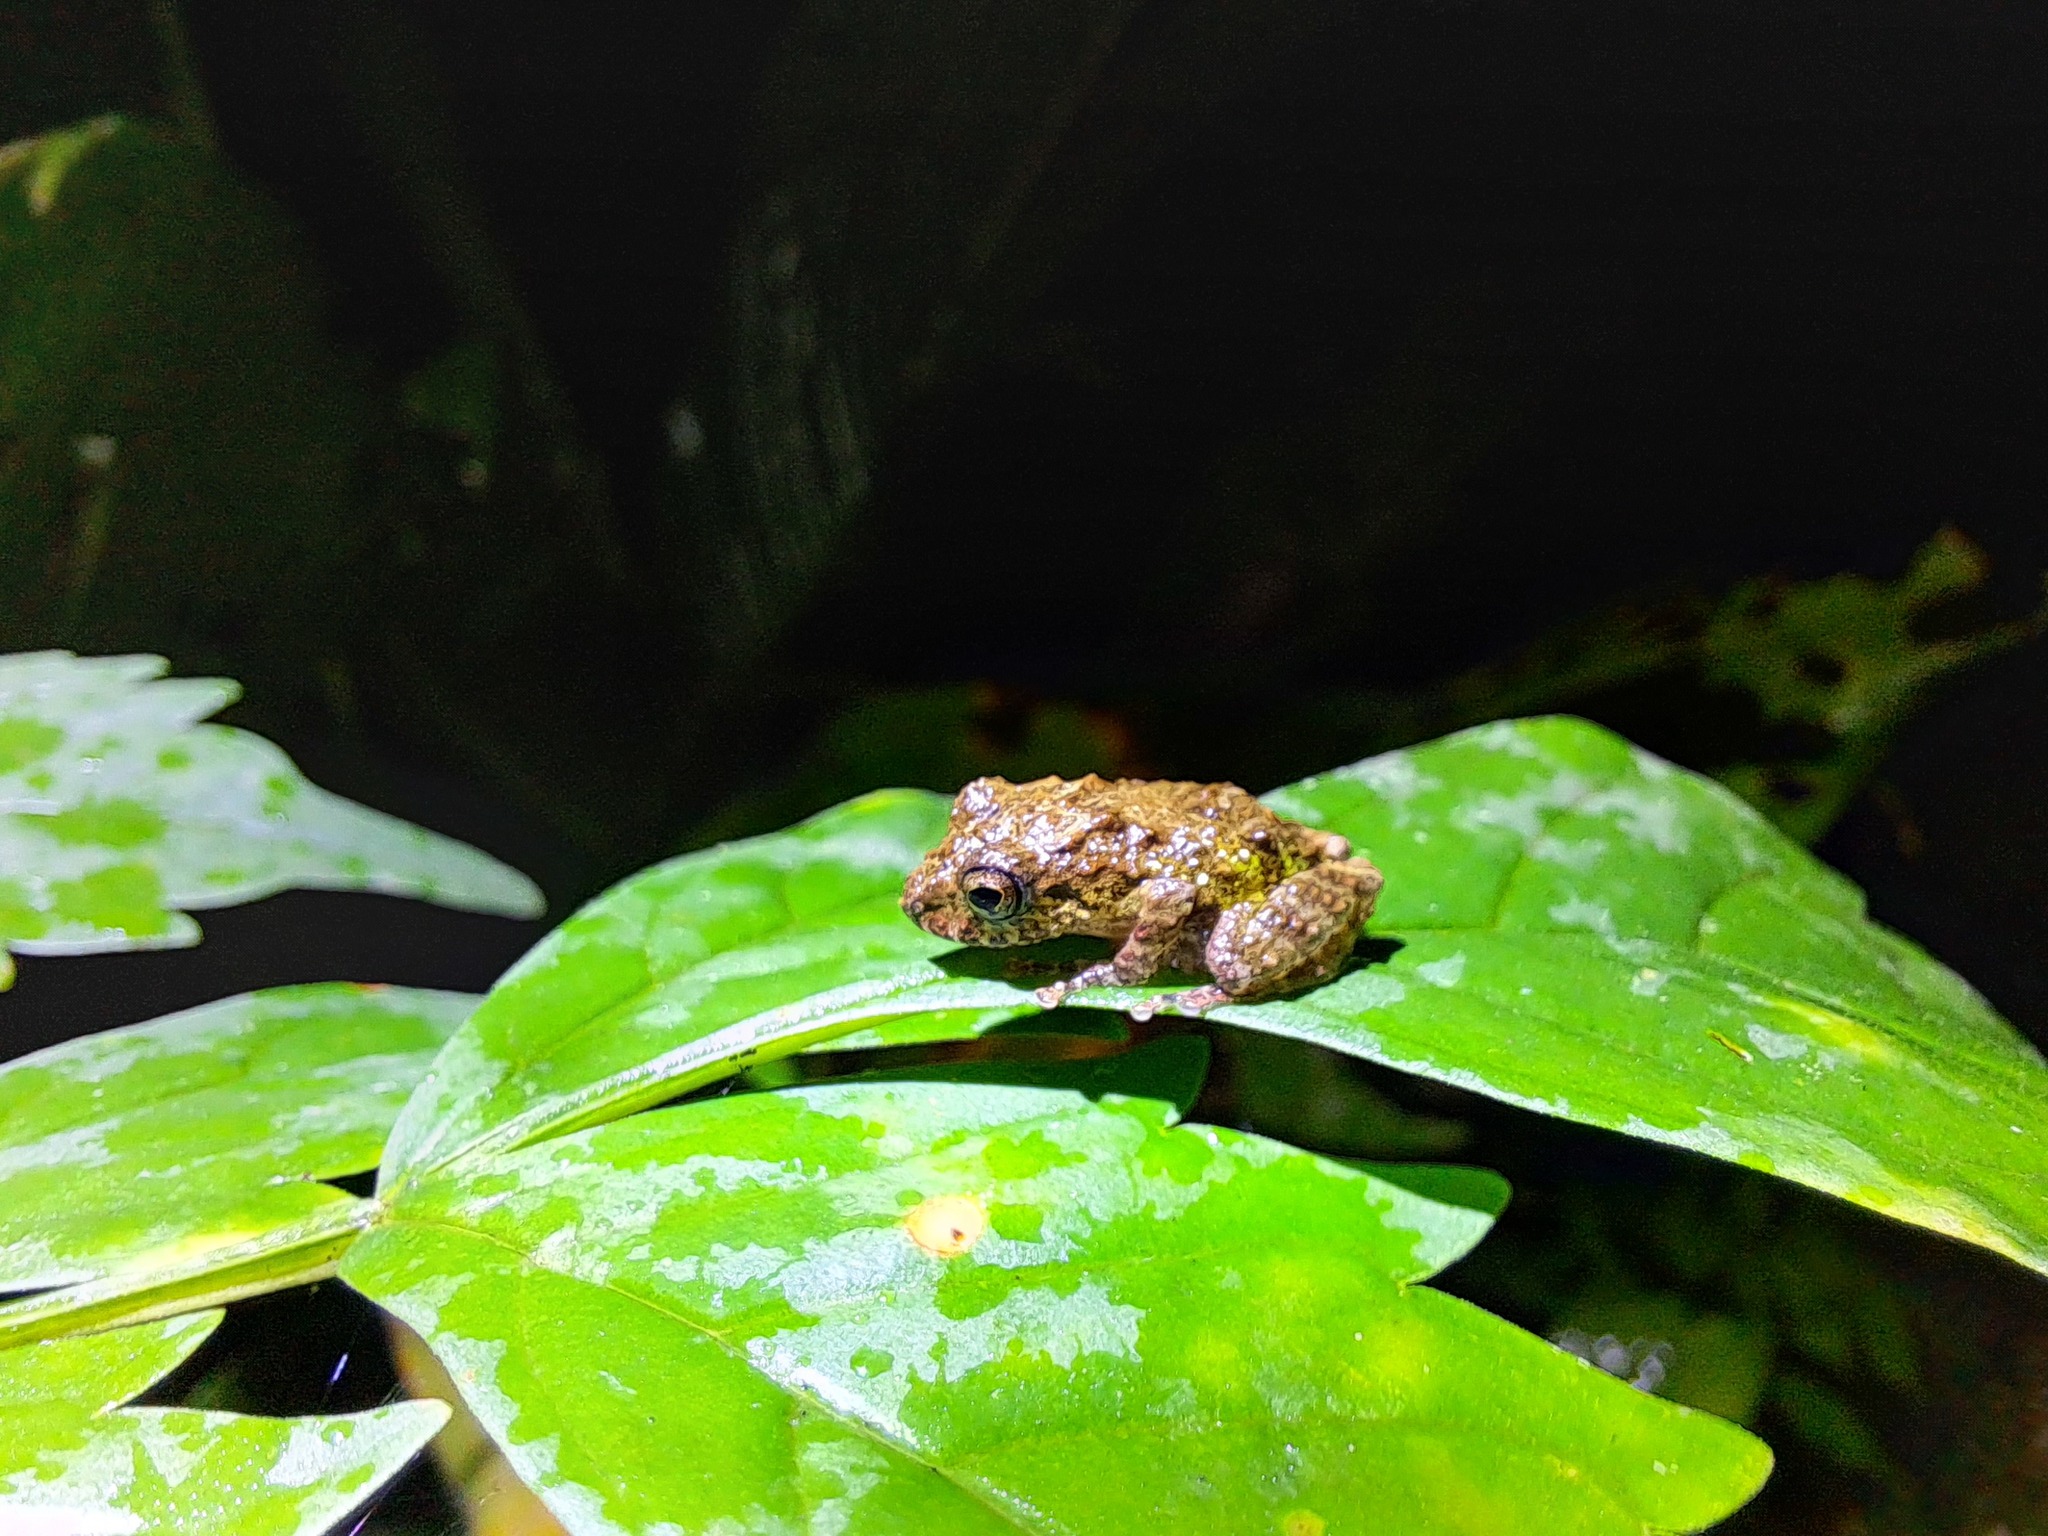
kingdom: Animalia
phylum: Chordata
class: Amphibia
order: Anura
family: Craugastoridae
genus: Pristimantis
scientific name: Pristimantis diadematus
